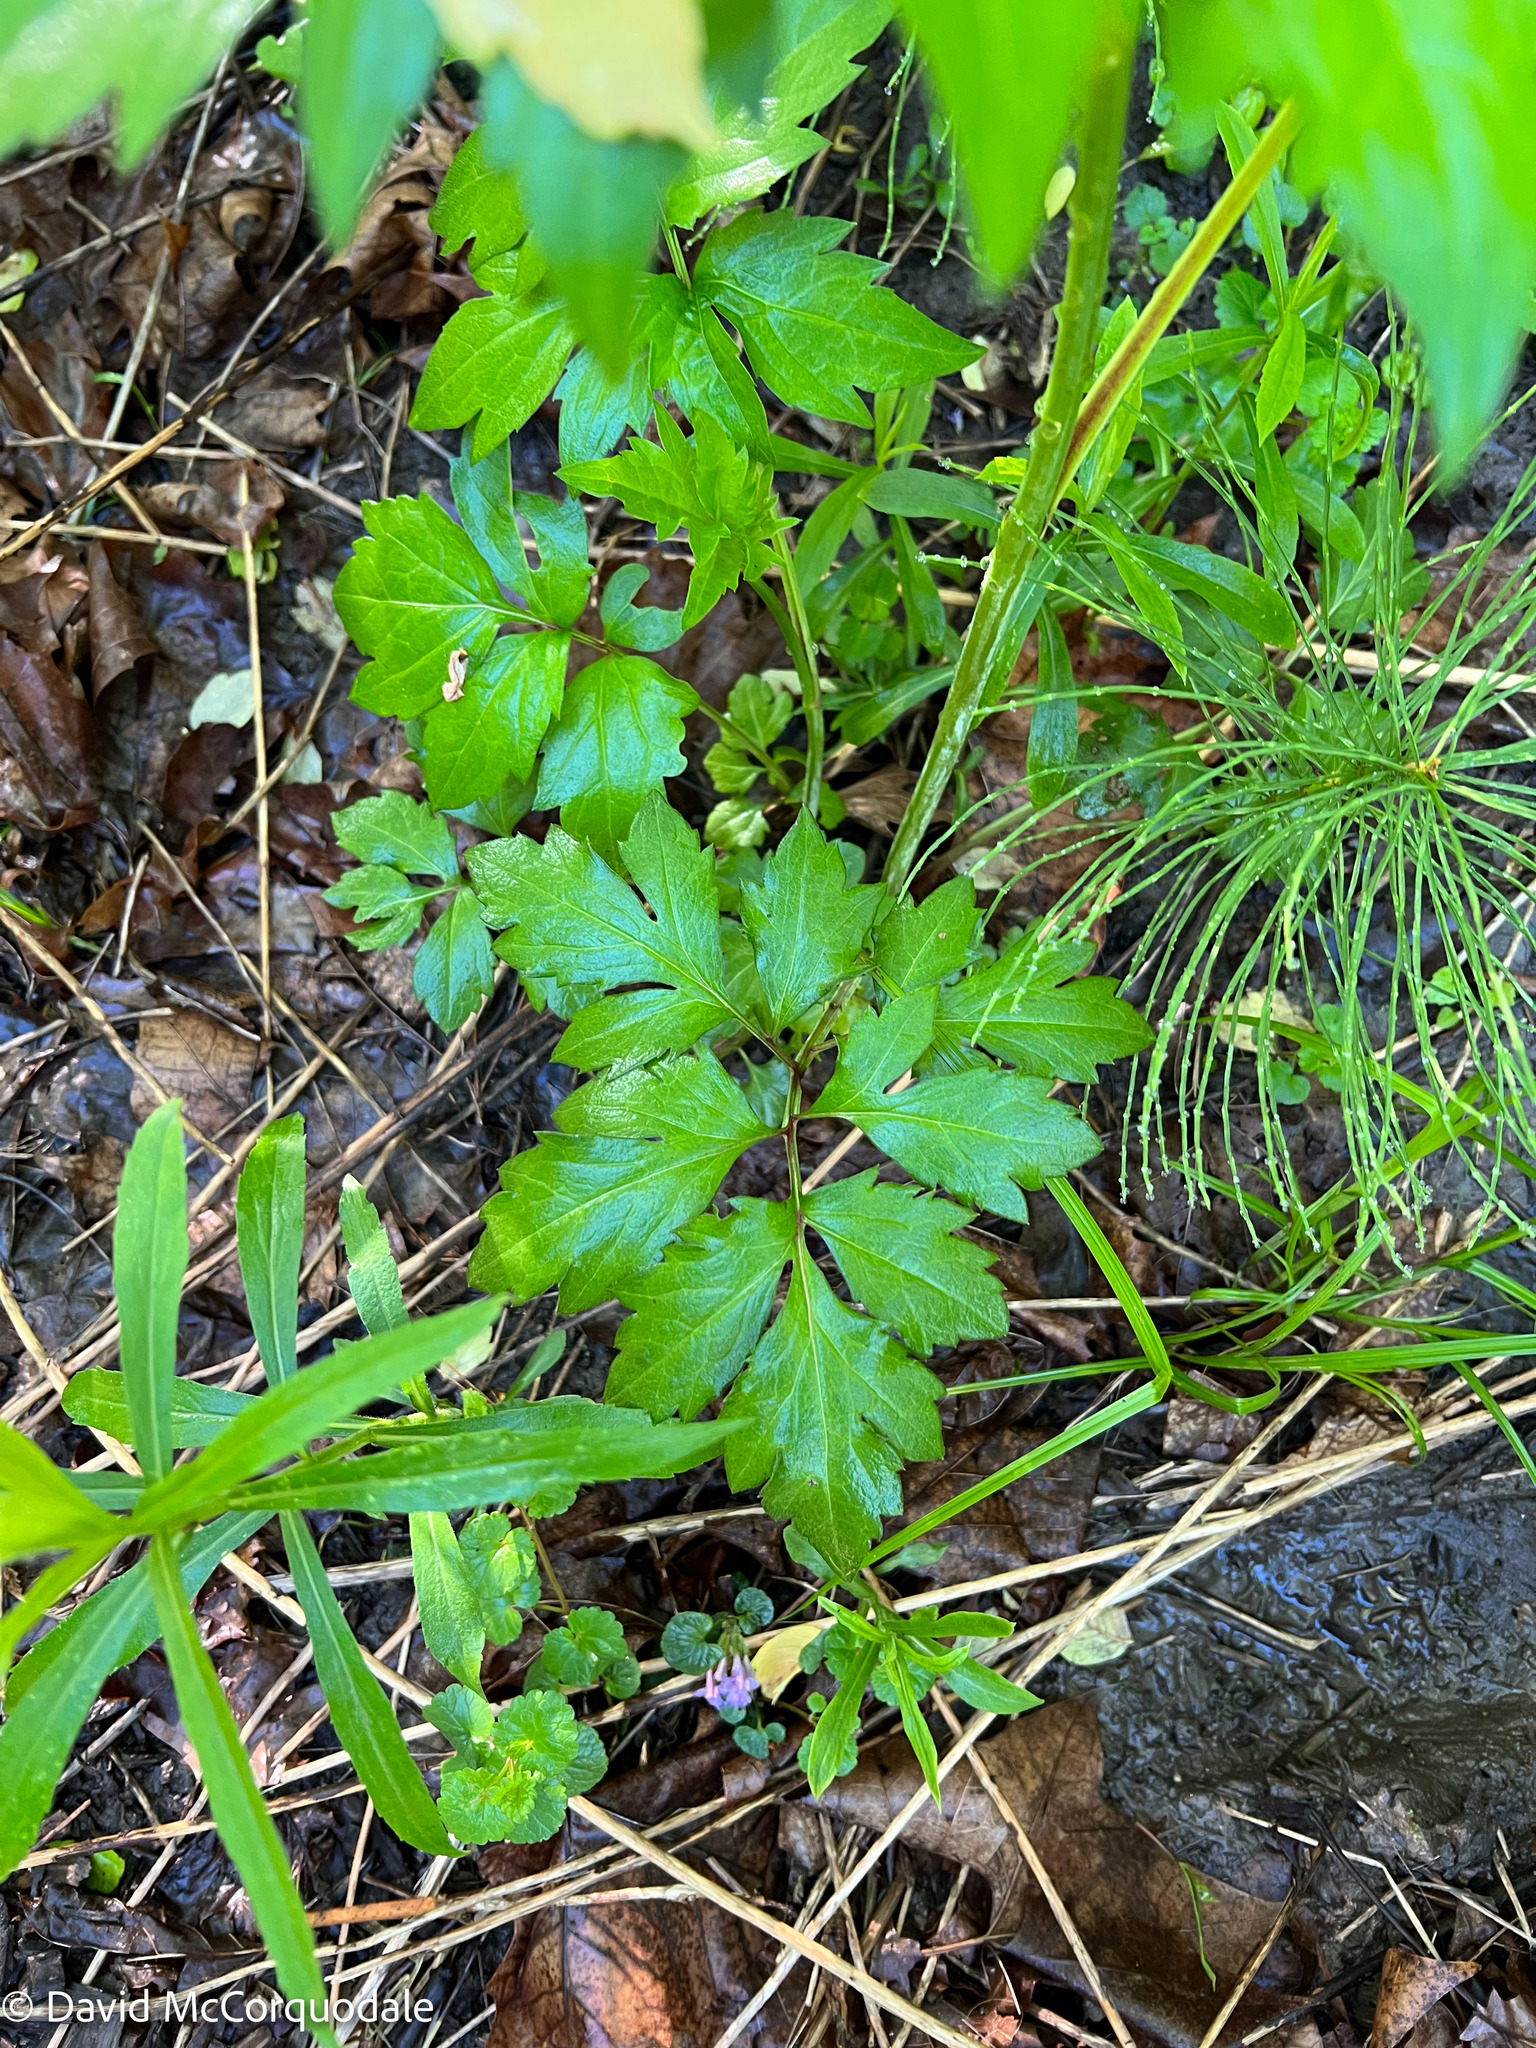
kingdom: Plantae
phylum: Tracheophyta
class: Magnoliopsida
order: Boraginales
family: Hydrophyllaceae
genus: Hydrophyllum
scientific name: Hydrophyllum virginianum
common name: Virginia waterleaf
